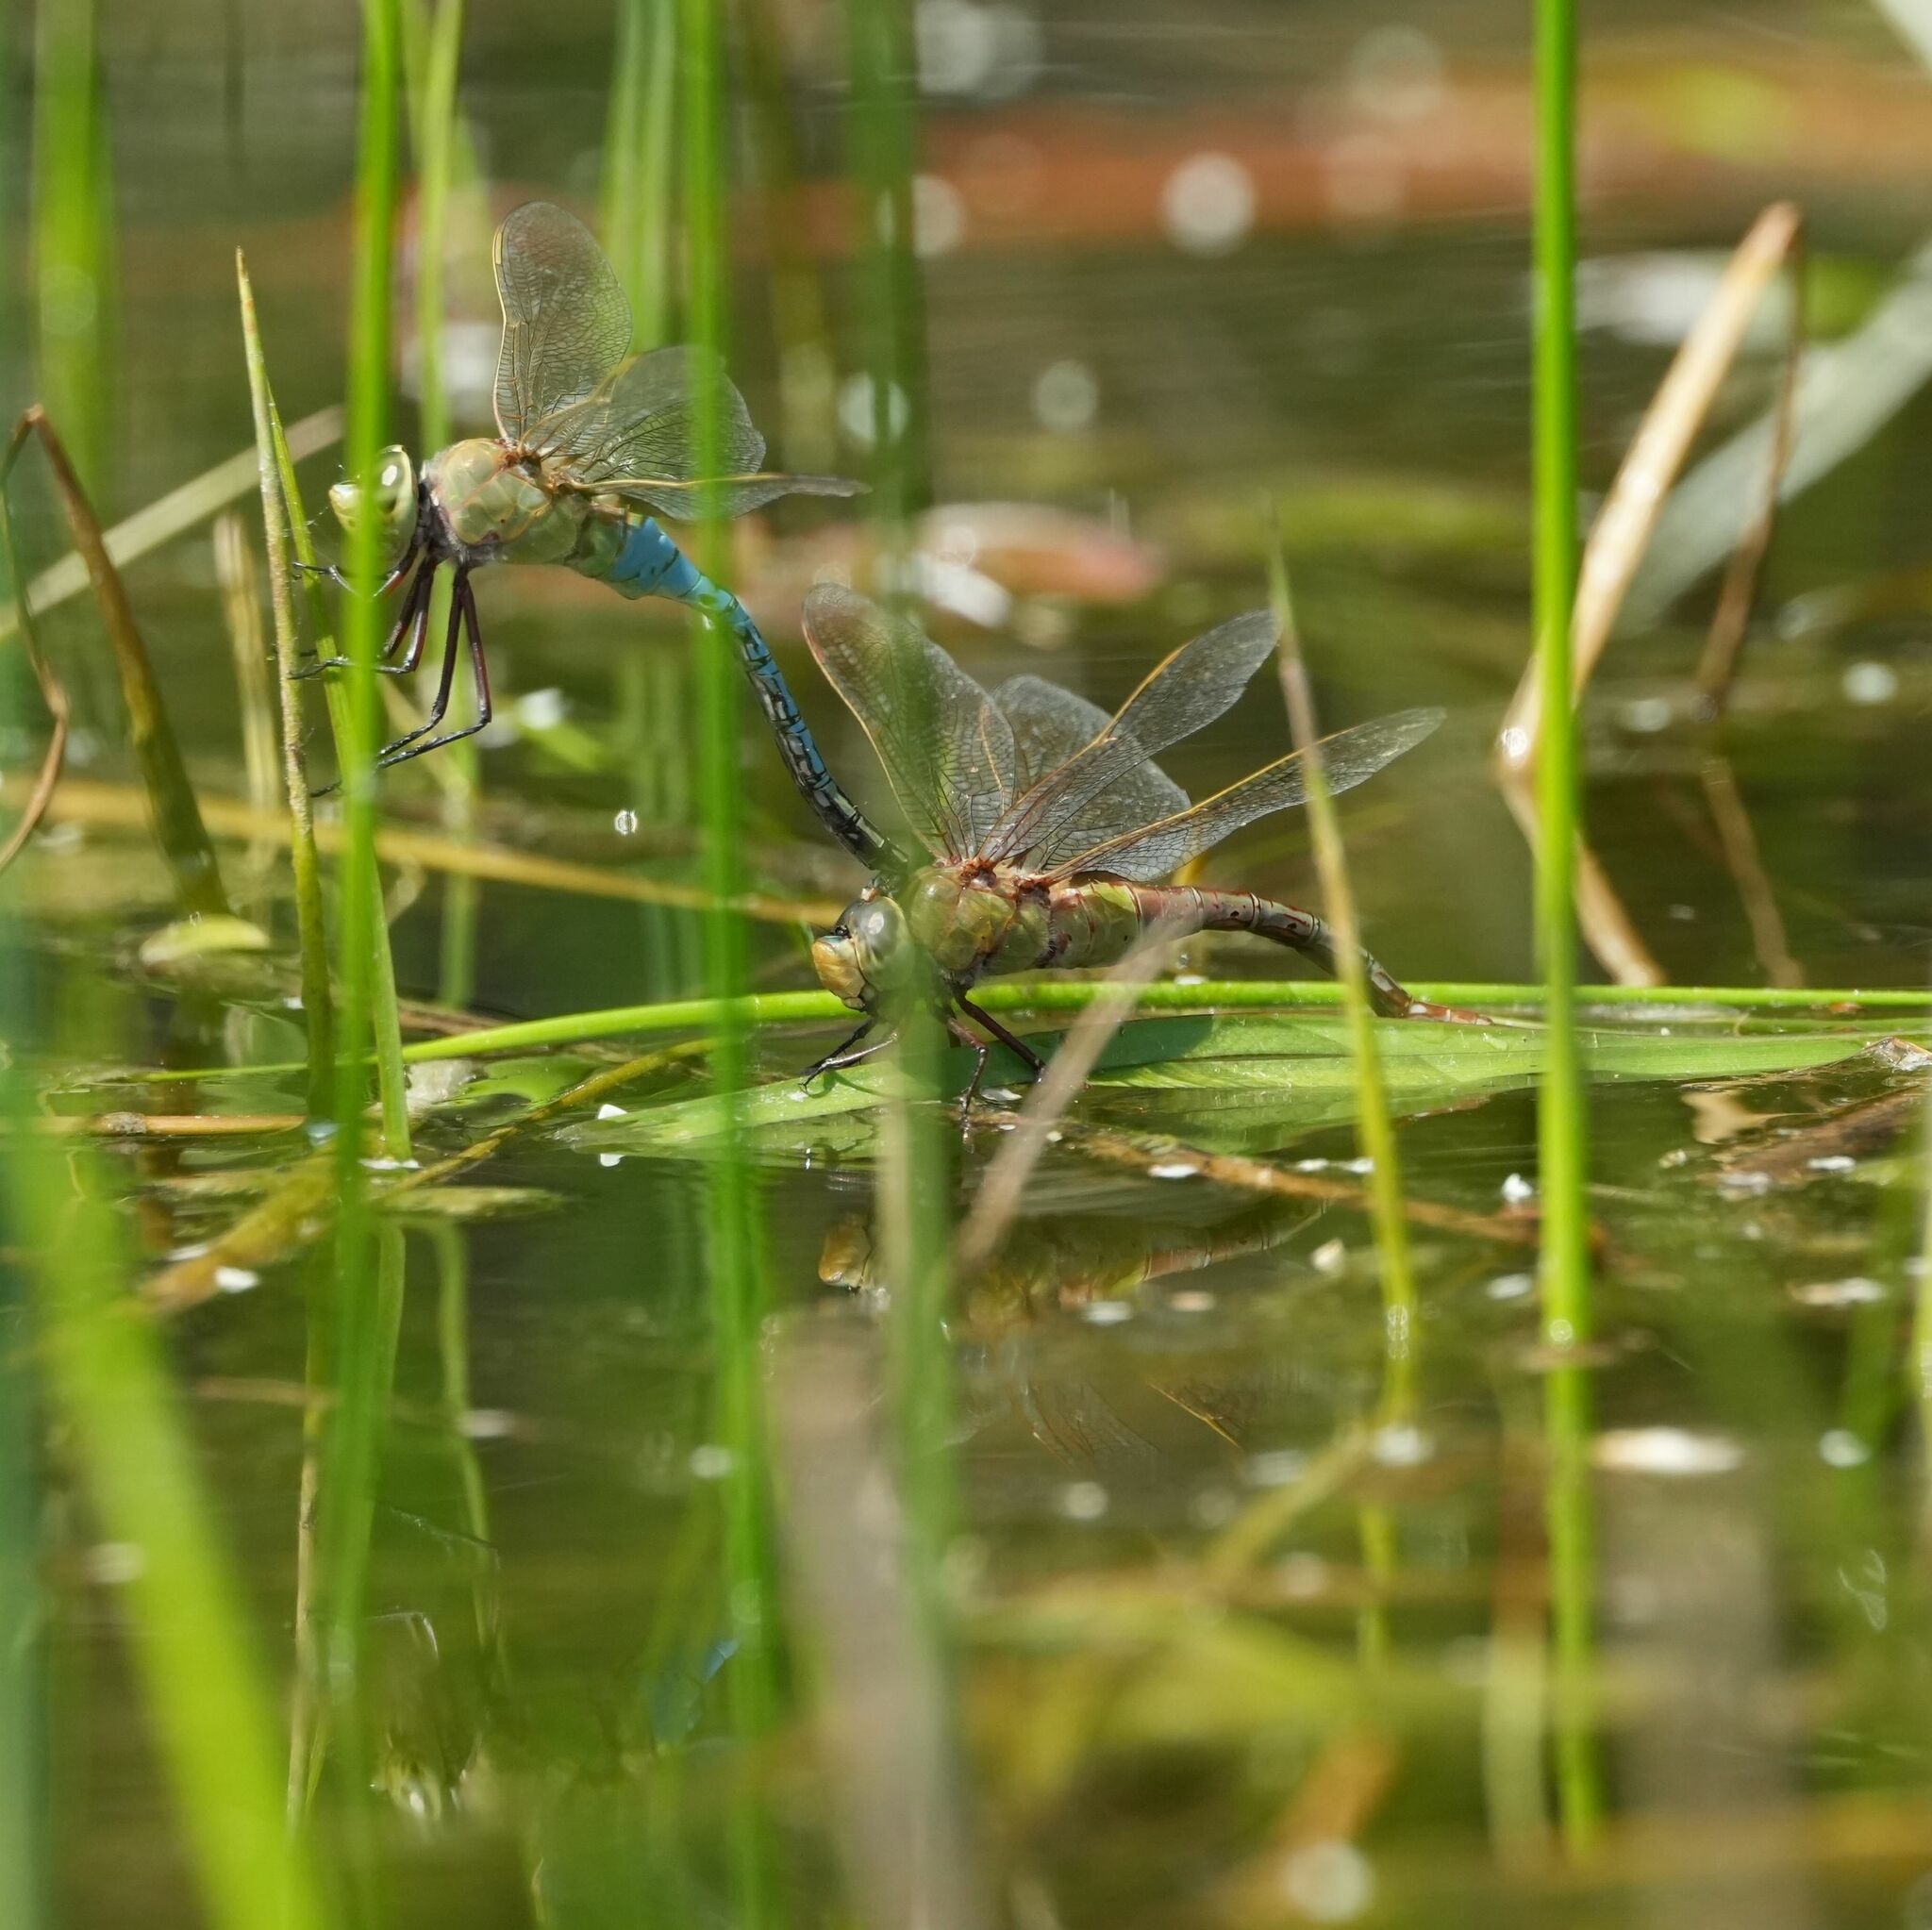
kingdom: Animalia
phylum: Arthropoda
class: Insecta
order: Odonata
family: Aeshnidae
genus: Anax
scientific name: Anax junius
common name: Common green darner
